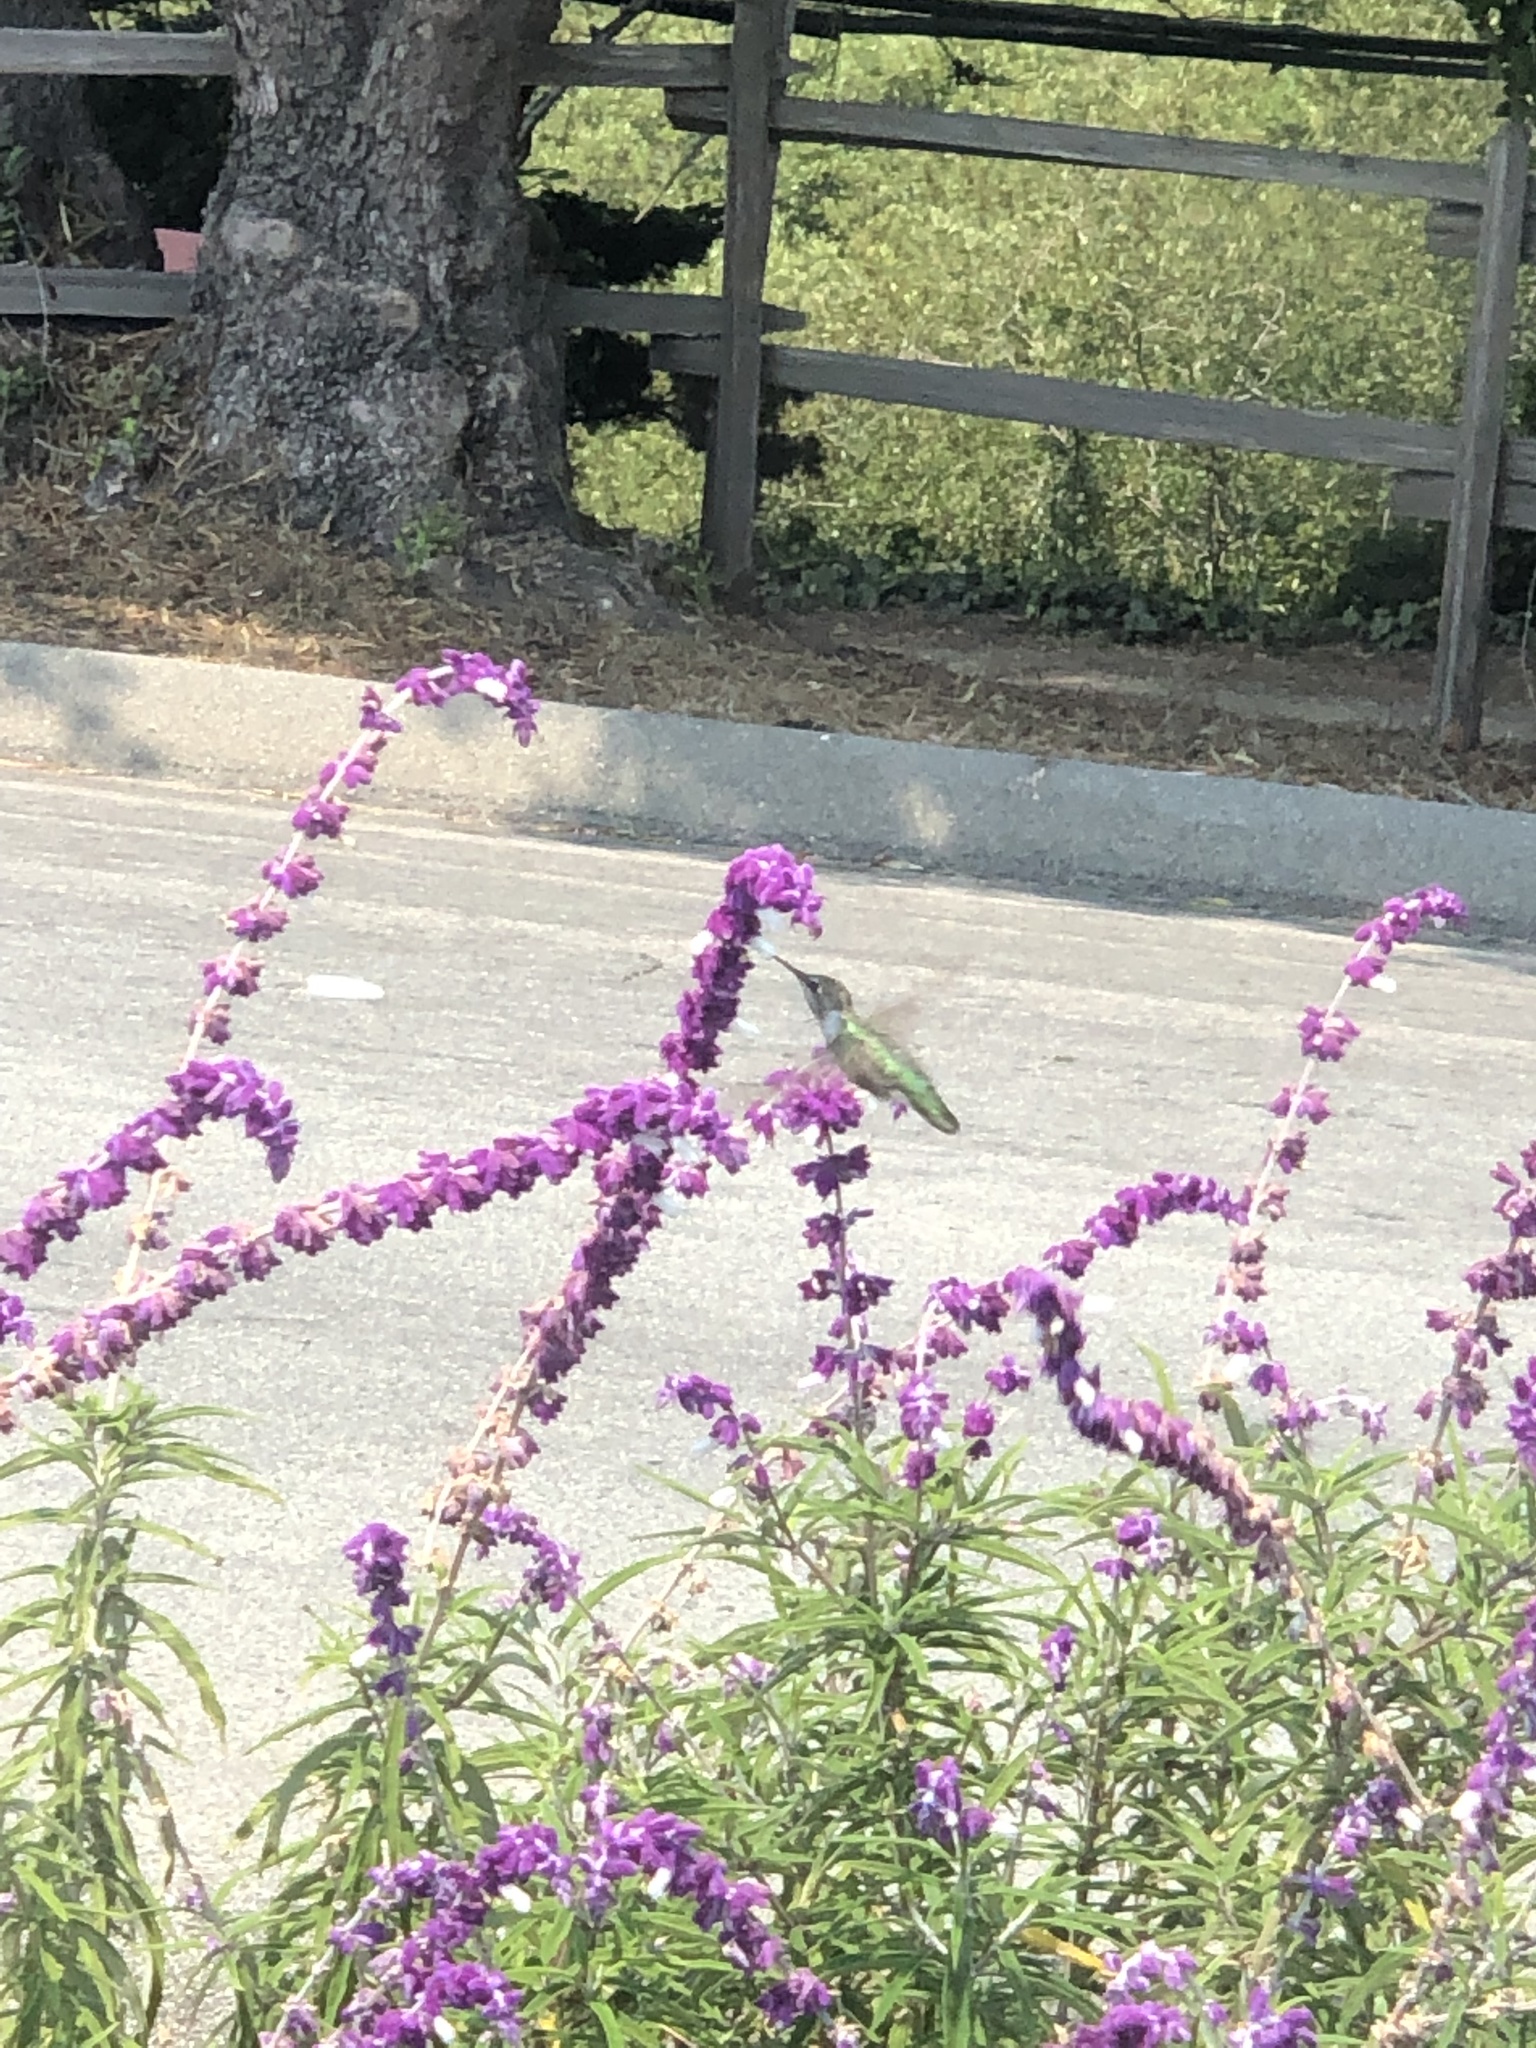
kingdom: Animalia
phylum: Chordata
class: Aves
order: Apodiformes
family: Trochilidae
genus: Calypte
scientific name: Calypte anna
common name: Anna's hummingbird
